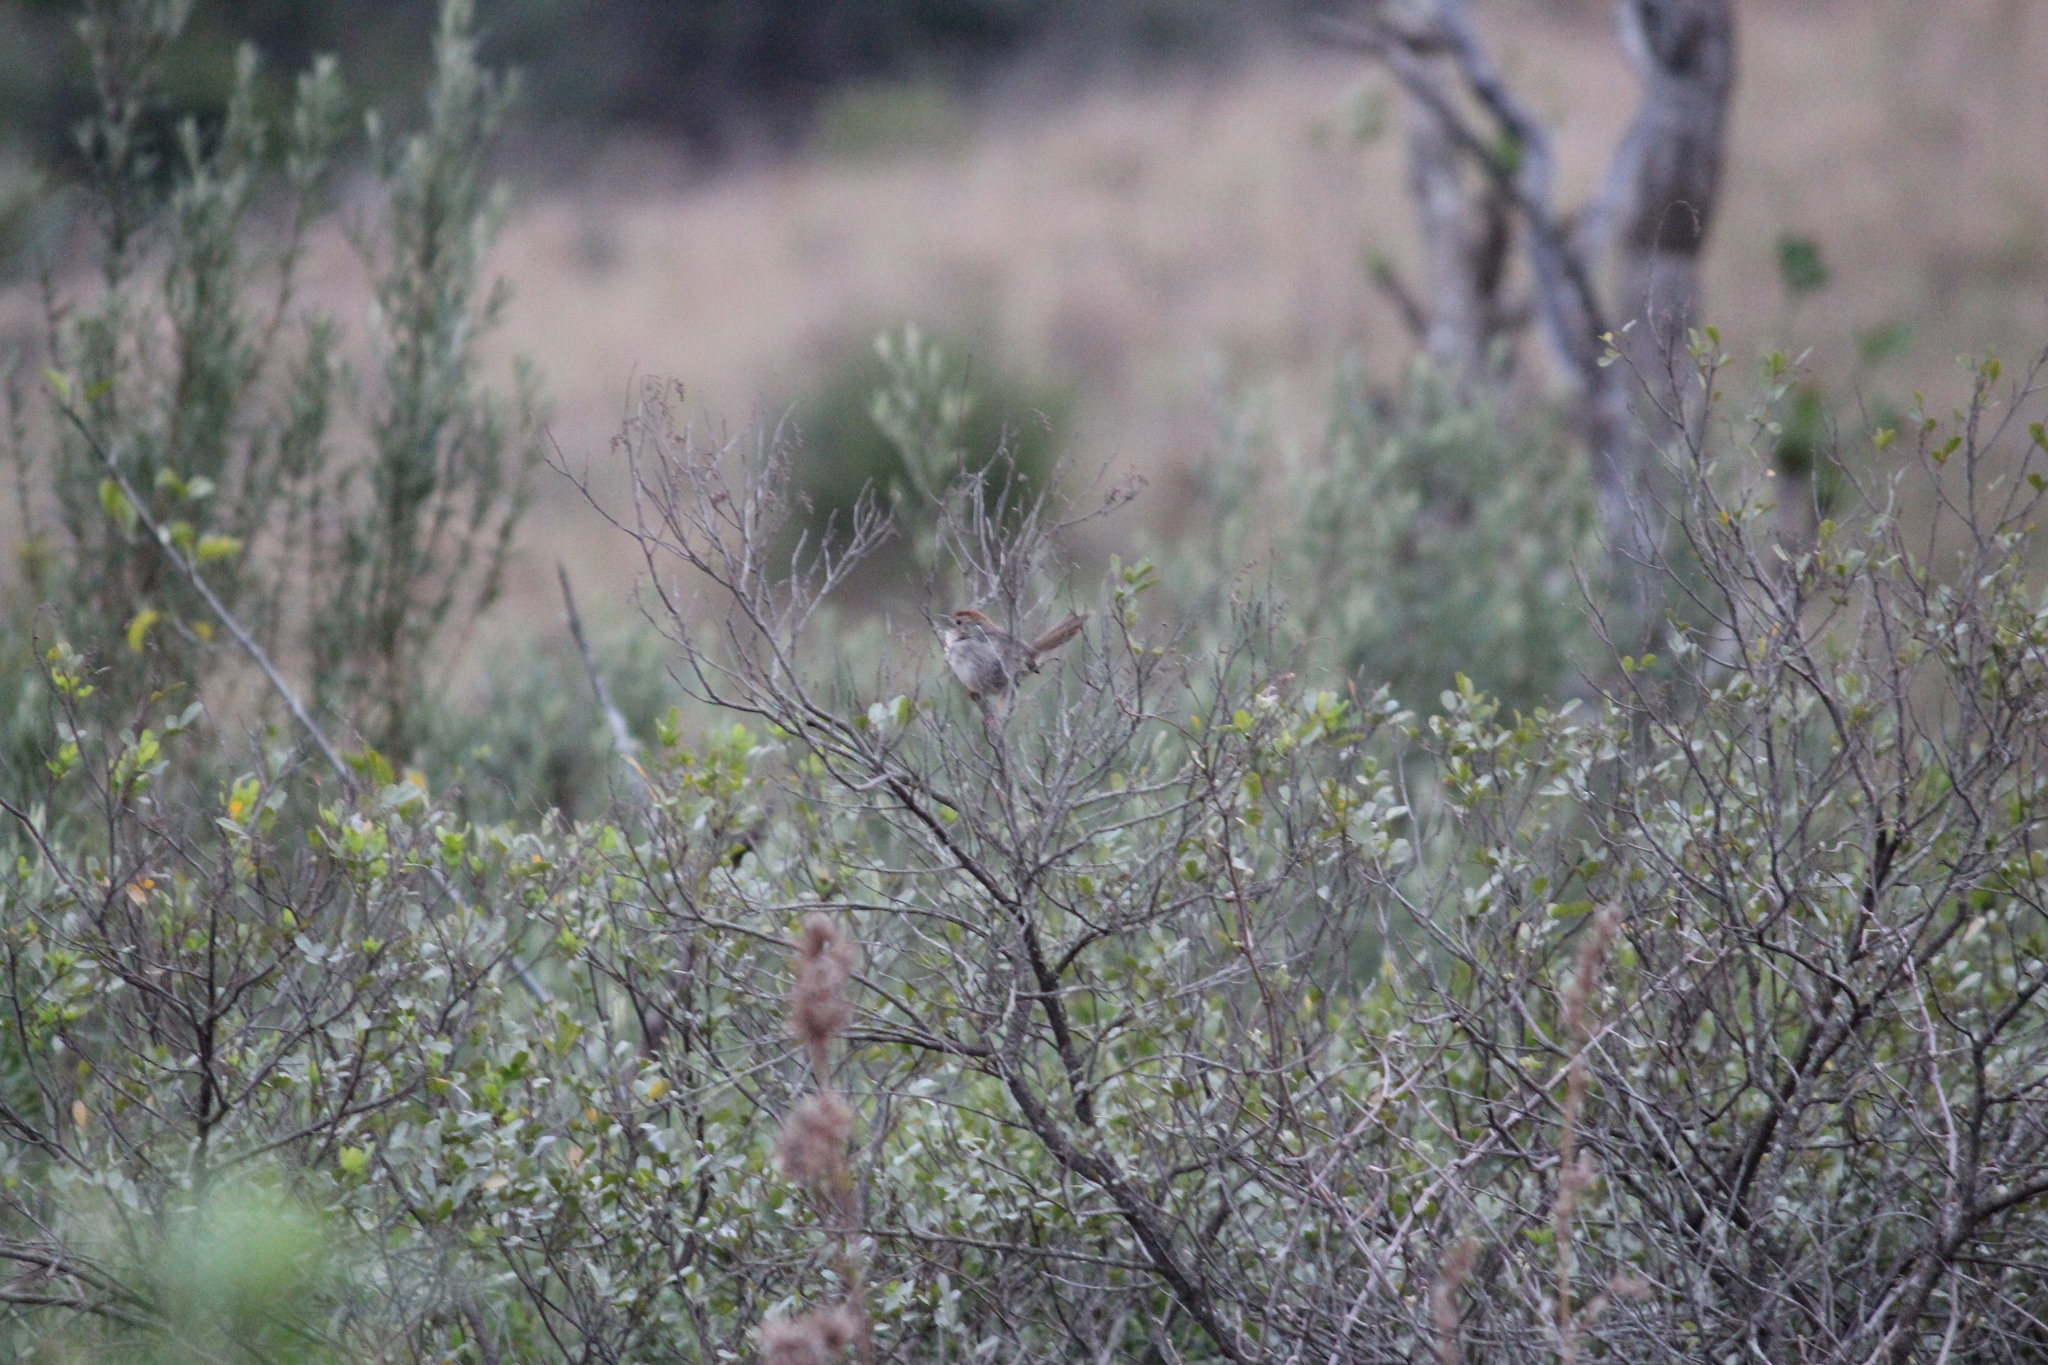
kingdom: Animalia
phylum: Chordata
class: Aves
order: Passeriformes
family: Cisticolidae
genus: Cisticola
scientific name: Cisticola fulvicapilla
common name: Neddicky
